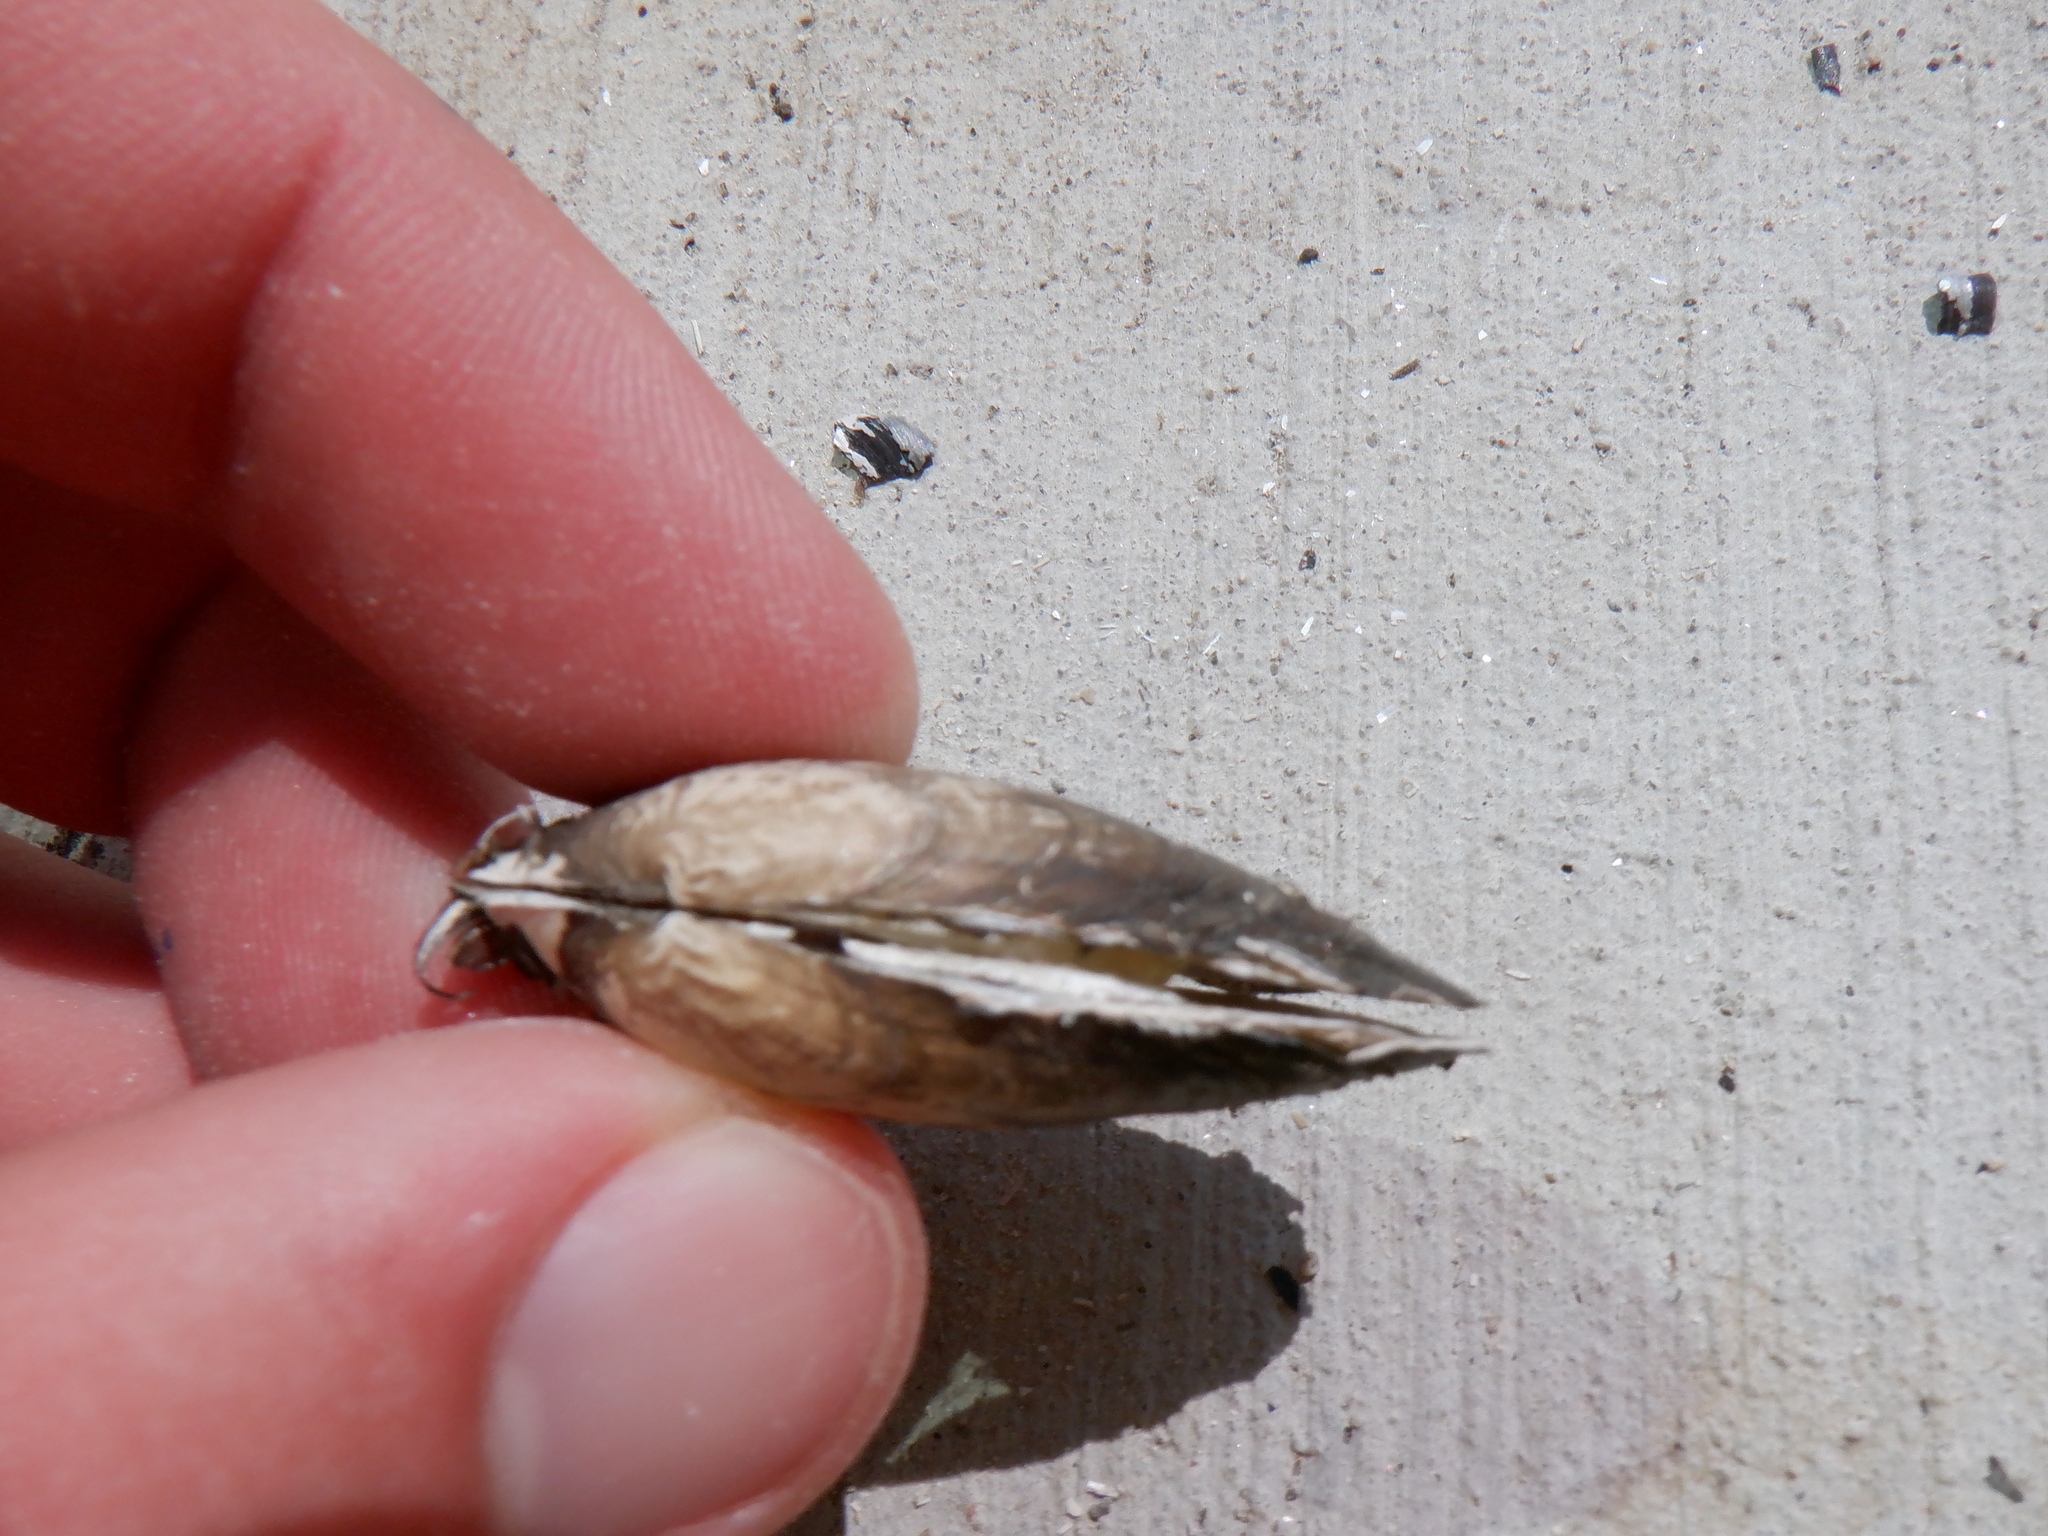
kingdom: Animalia
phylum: Mollusca
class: Bivalvia
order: Unionida
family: Unionidae
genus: Venustaconcha
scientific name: Venustaconcha ellipsiformis
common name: Ellipse
